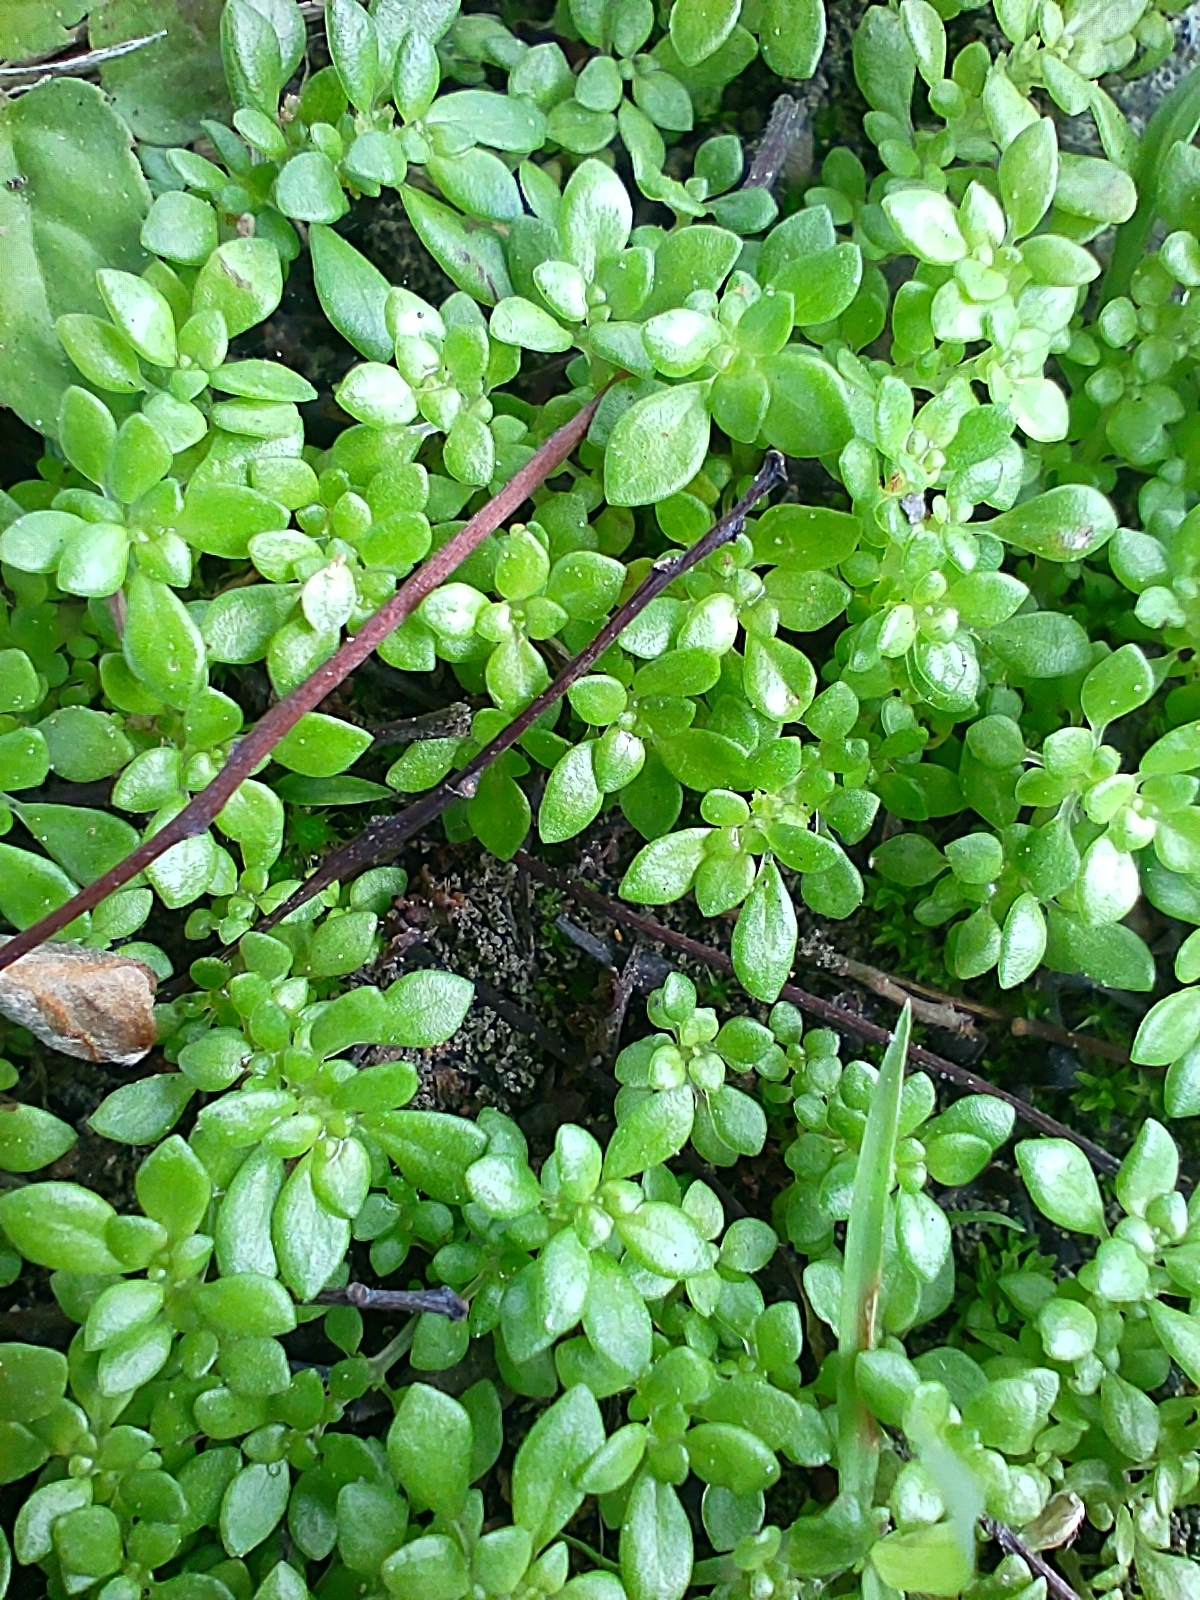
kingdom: Plantae
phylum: Tracheophyta
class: Magnoliopsida
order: Rosales
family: Urticaceae
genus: Pilea
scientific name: Pilea microphylla
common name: Artillery-plant
